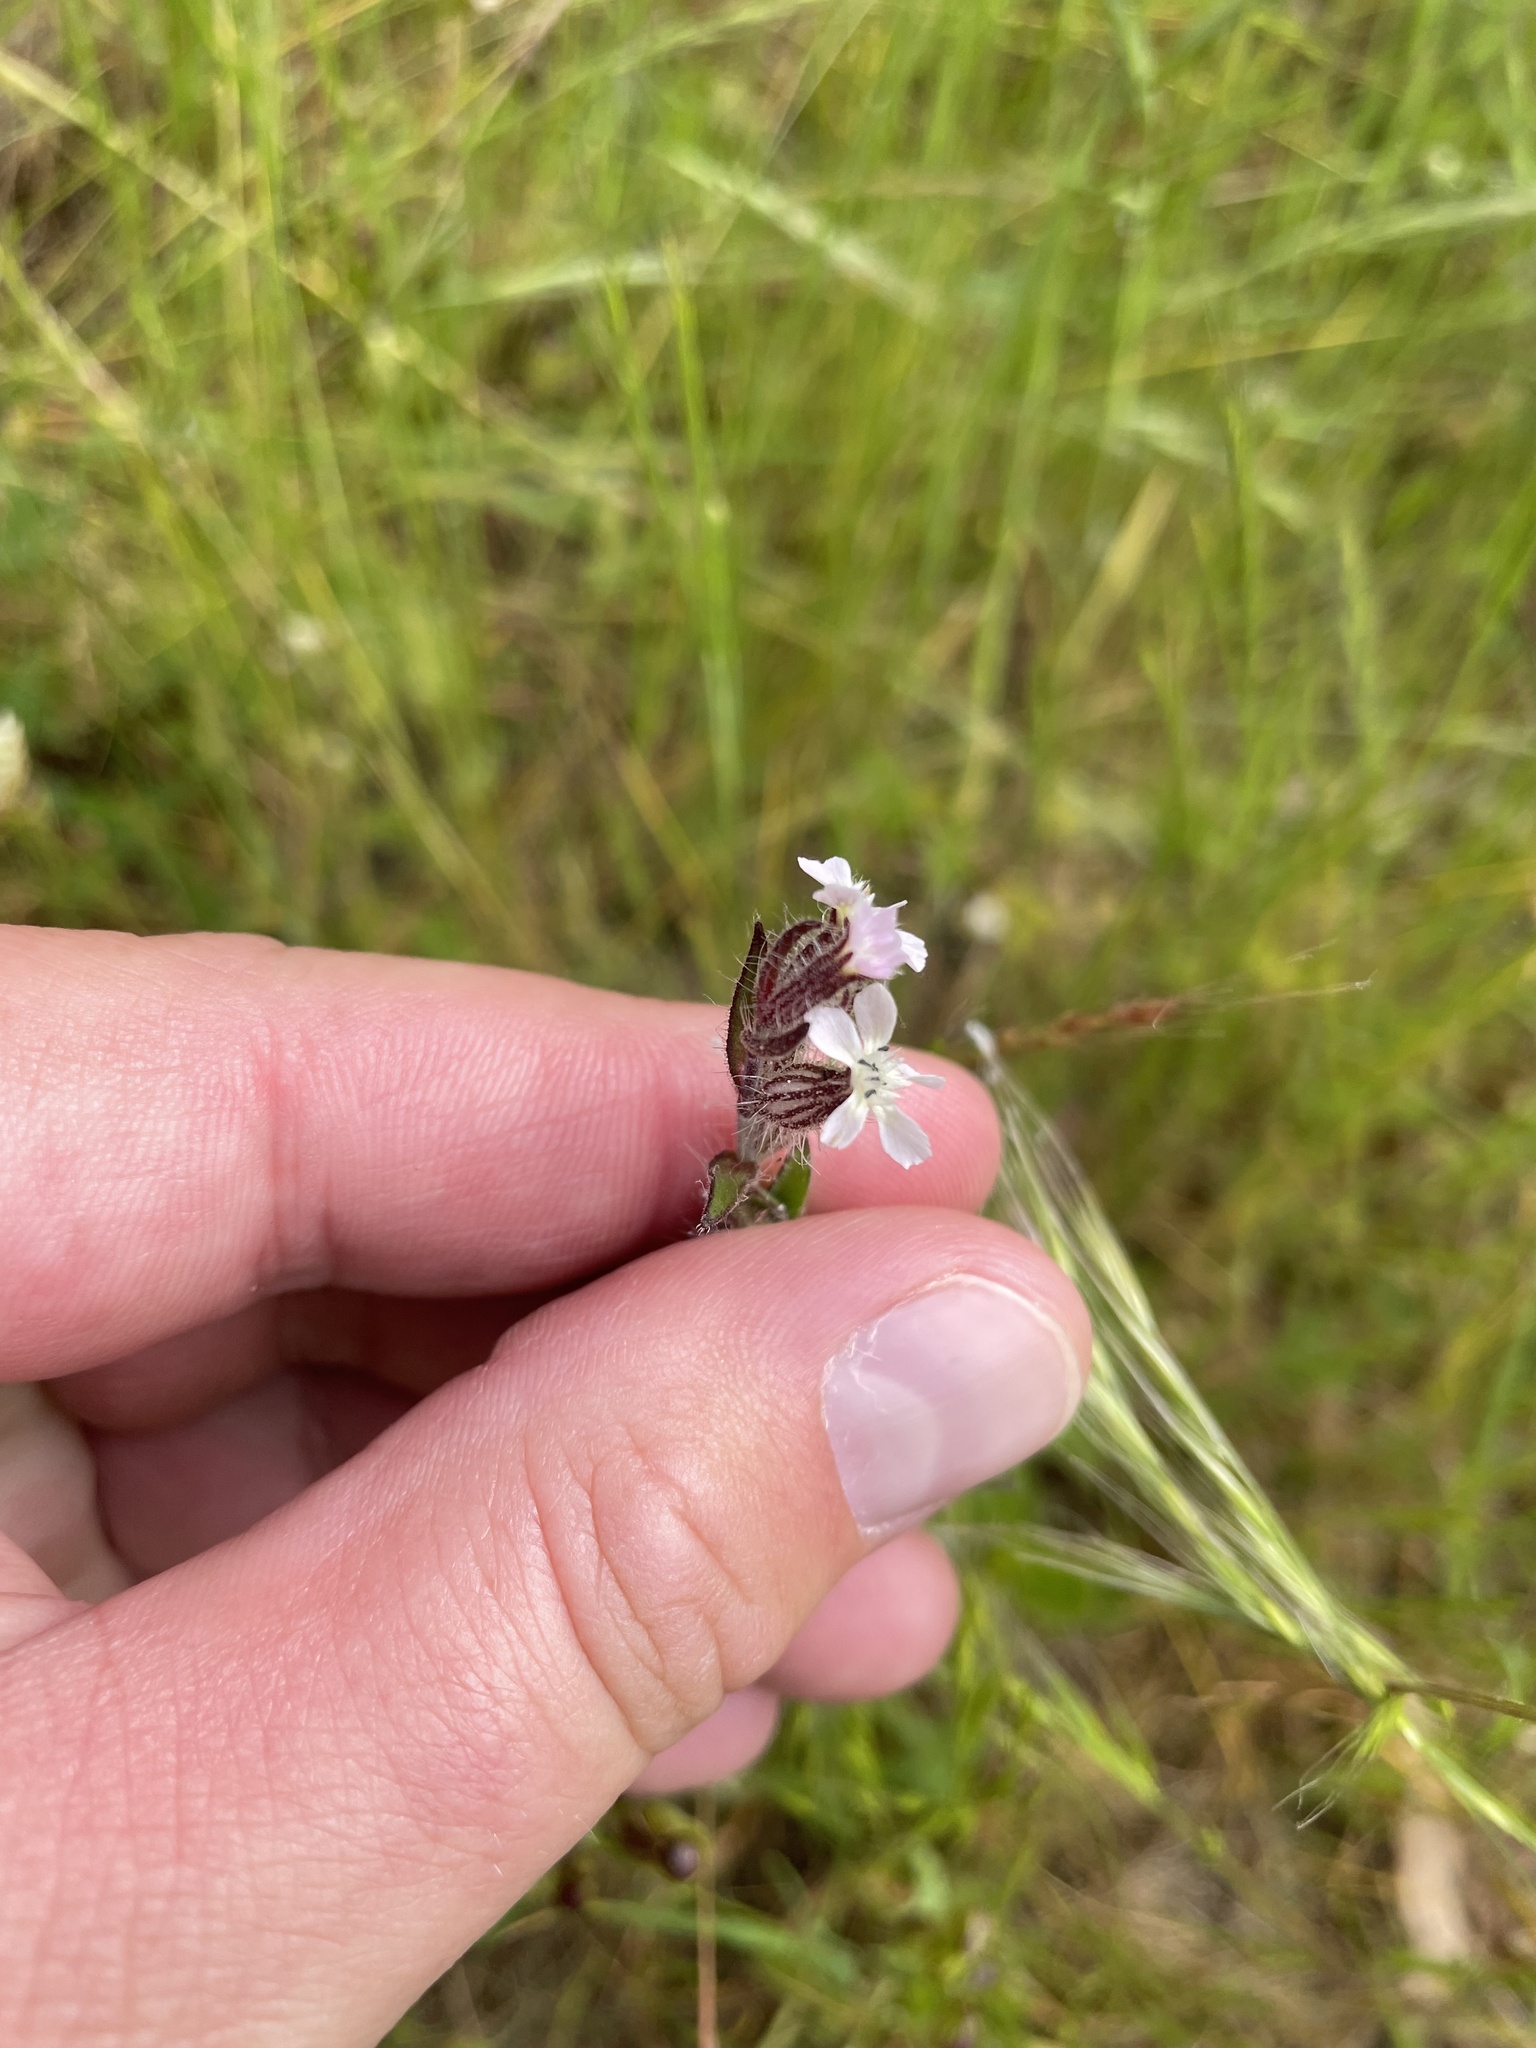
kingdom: Plantae
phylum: Tracheophyta
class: Magnoliopsida
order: Caryophyllales
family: Caryophyllaceae
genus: Silene
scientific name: Silene gallica
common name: Small-flowered catchfly
